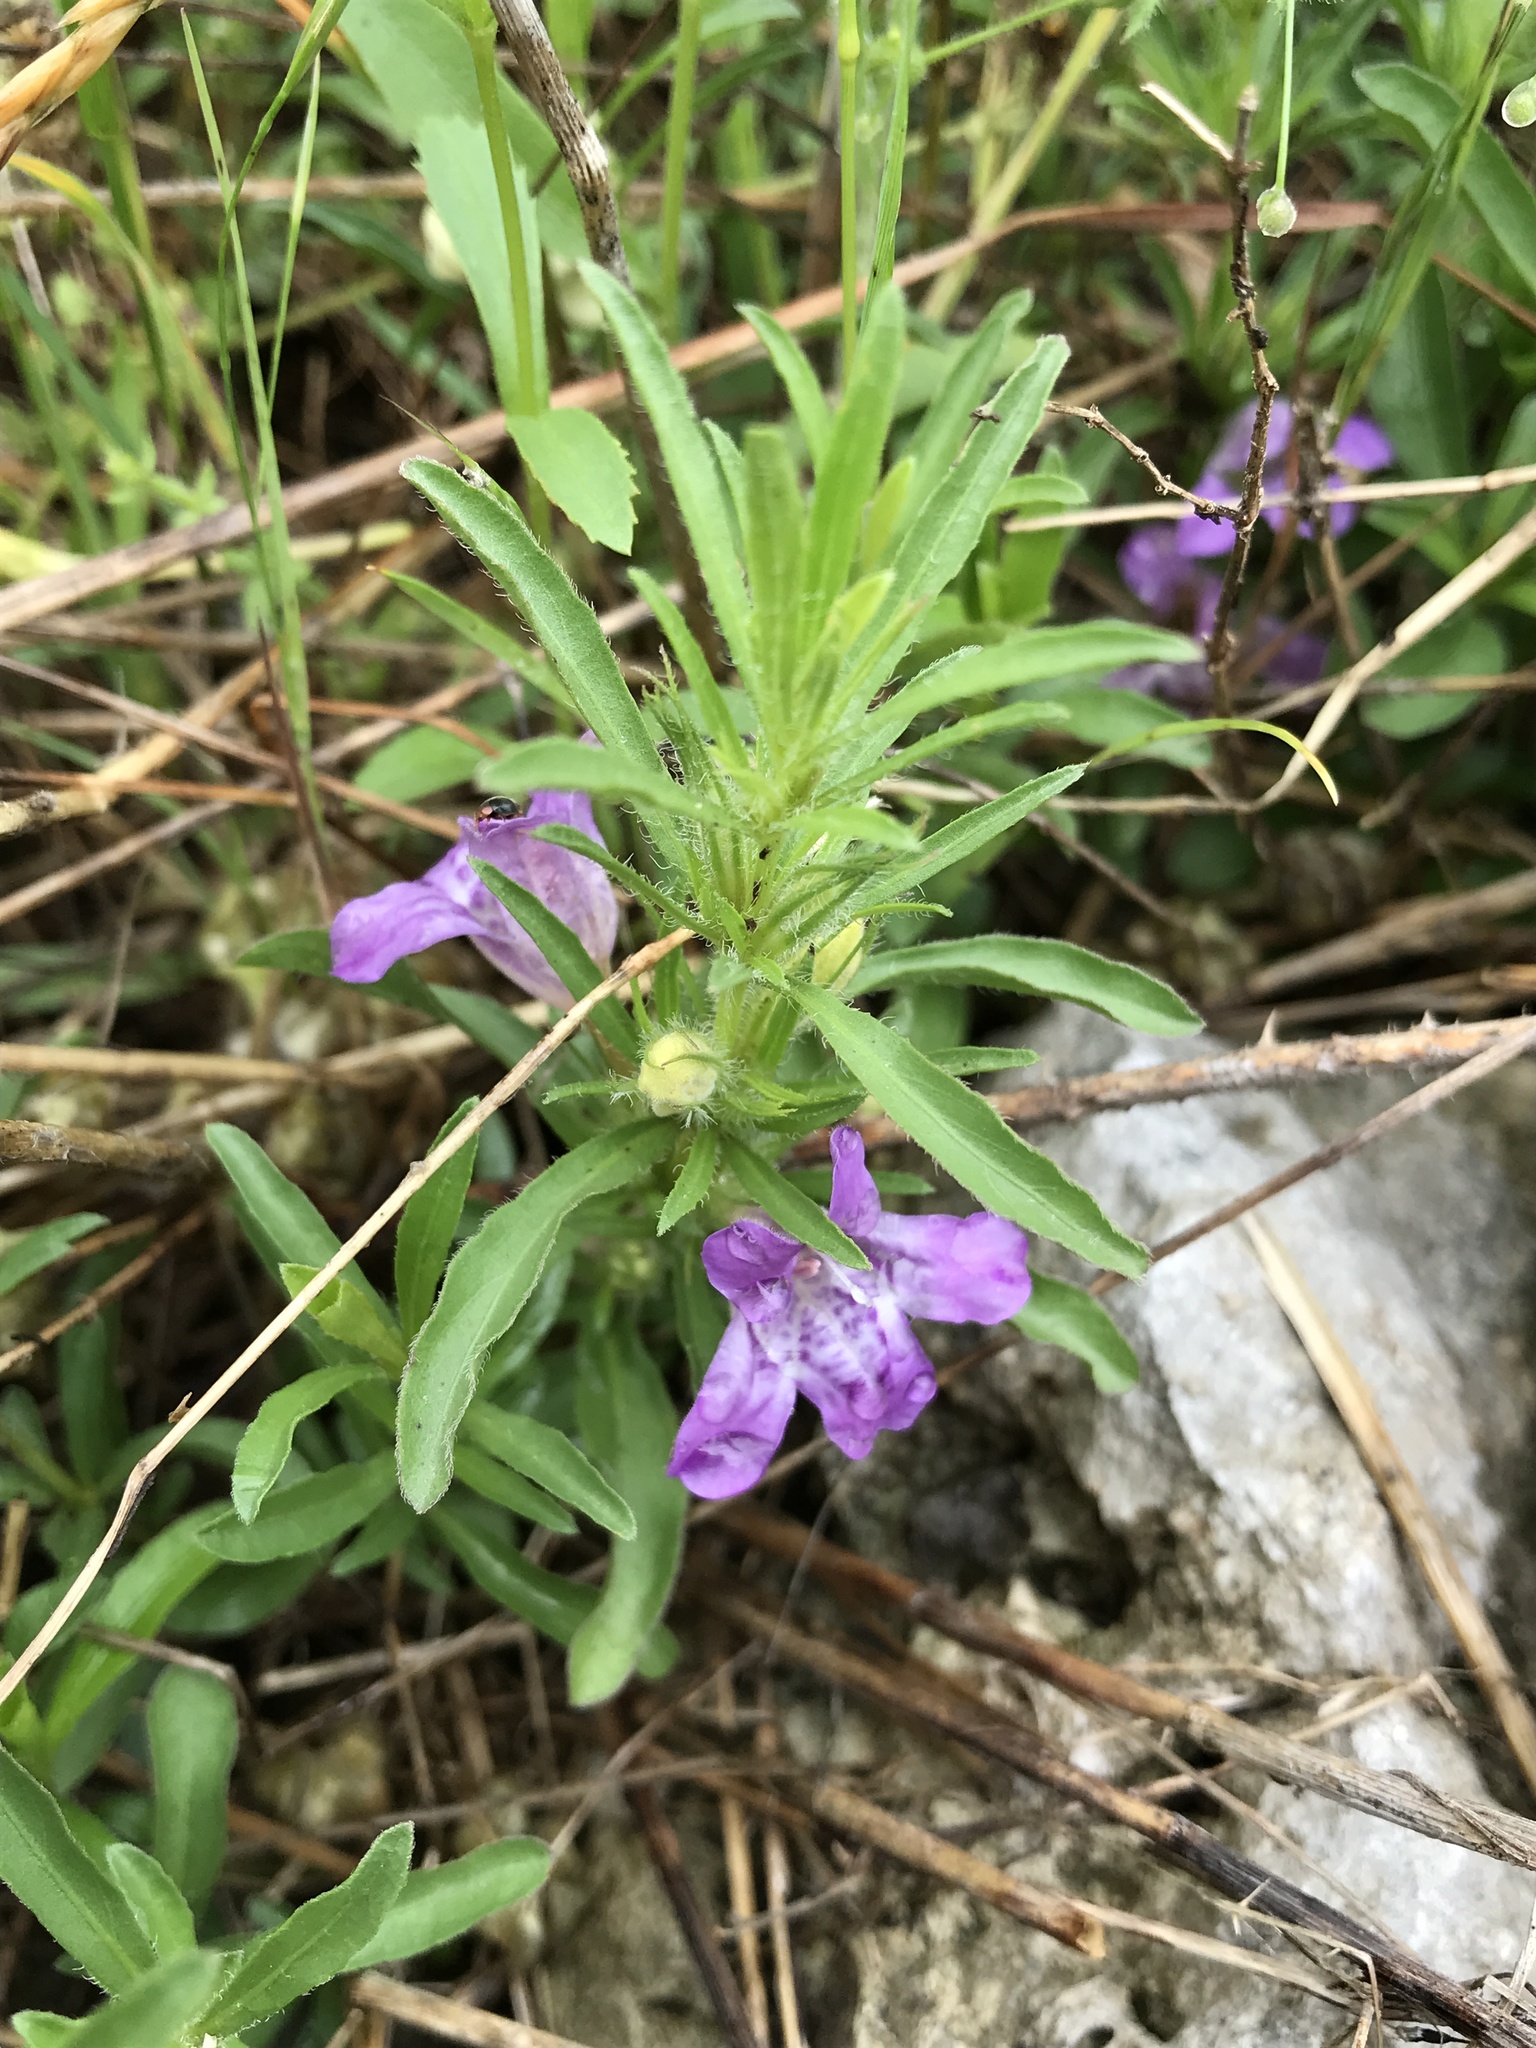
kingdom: Plantae
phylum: Tracheophyta
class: Magnoliopsida
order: Lamiales
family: Acanthaceae
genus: Dyschoriste
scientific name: Dyschoriste linearis
